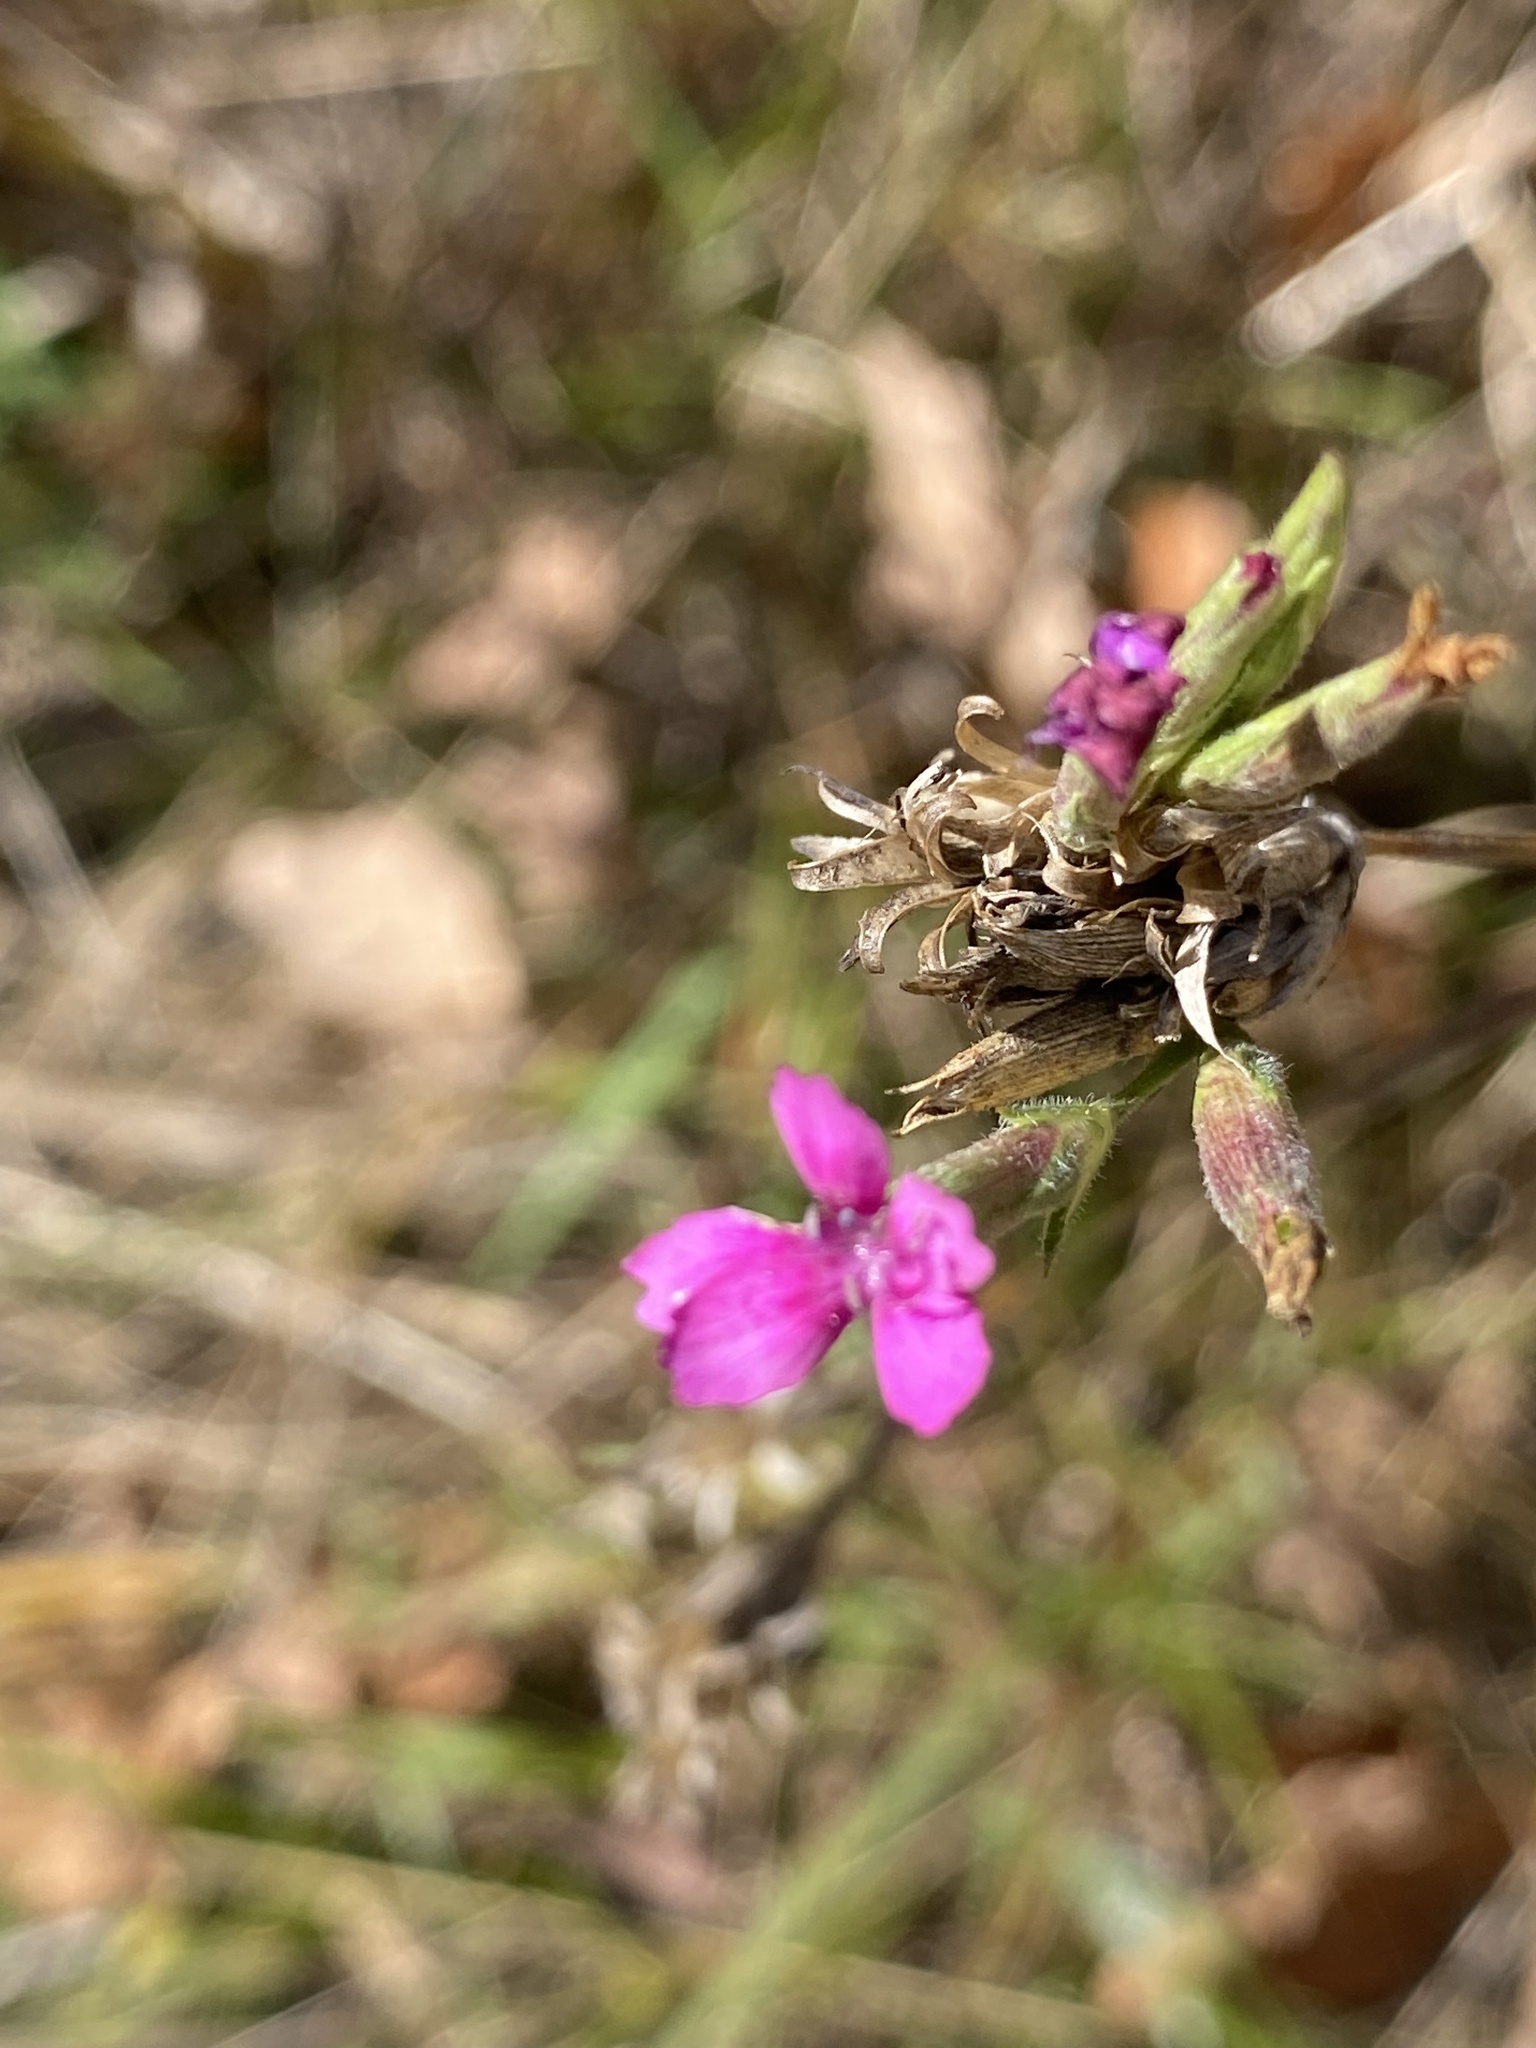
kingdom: Plantae
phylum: Tracheophyta
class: Magnoliopsida
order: Caryophyllales
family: Caryophyllaceae
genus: Dianthus
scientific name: Dianthus armeria
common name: Deptford pink
